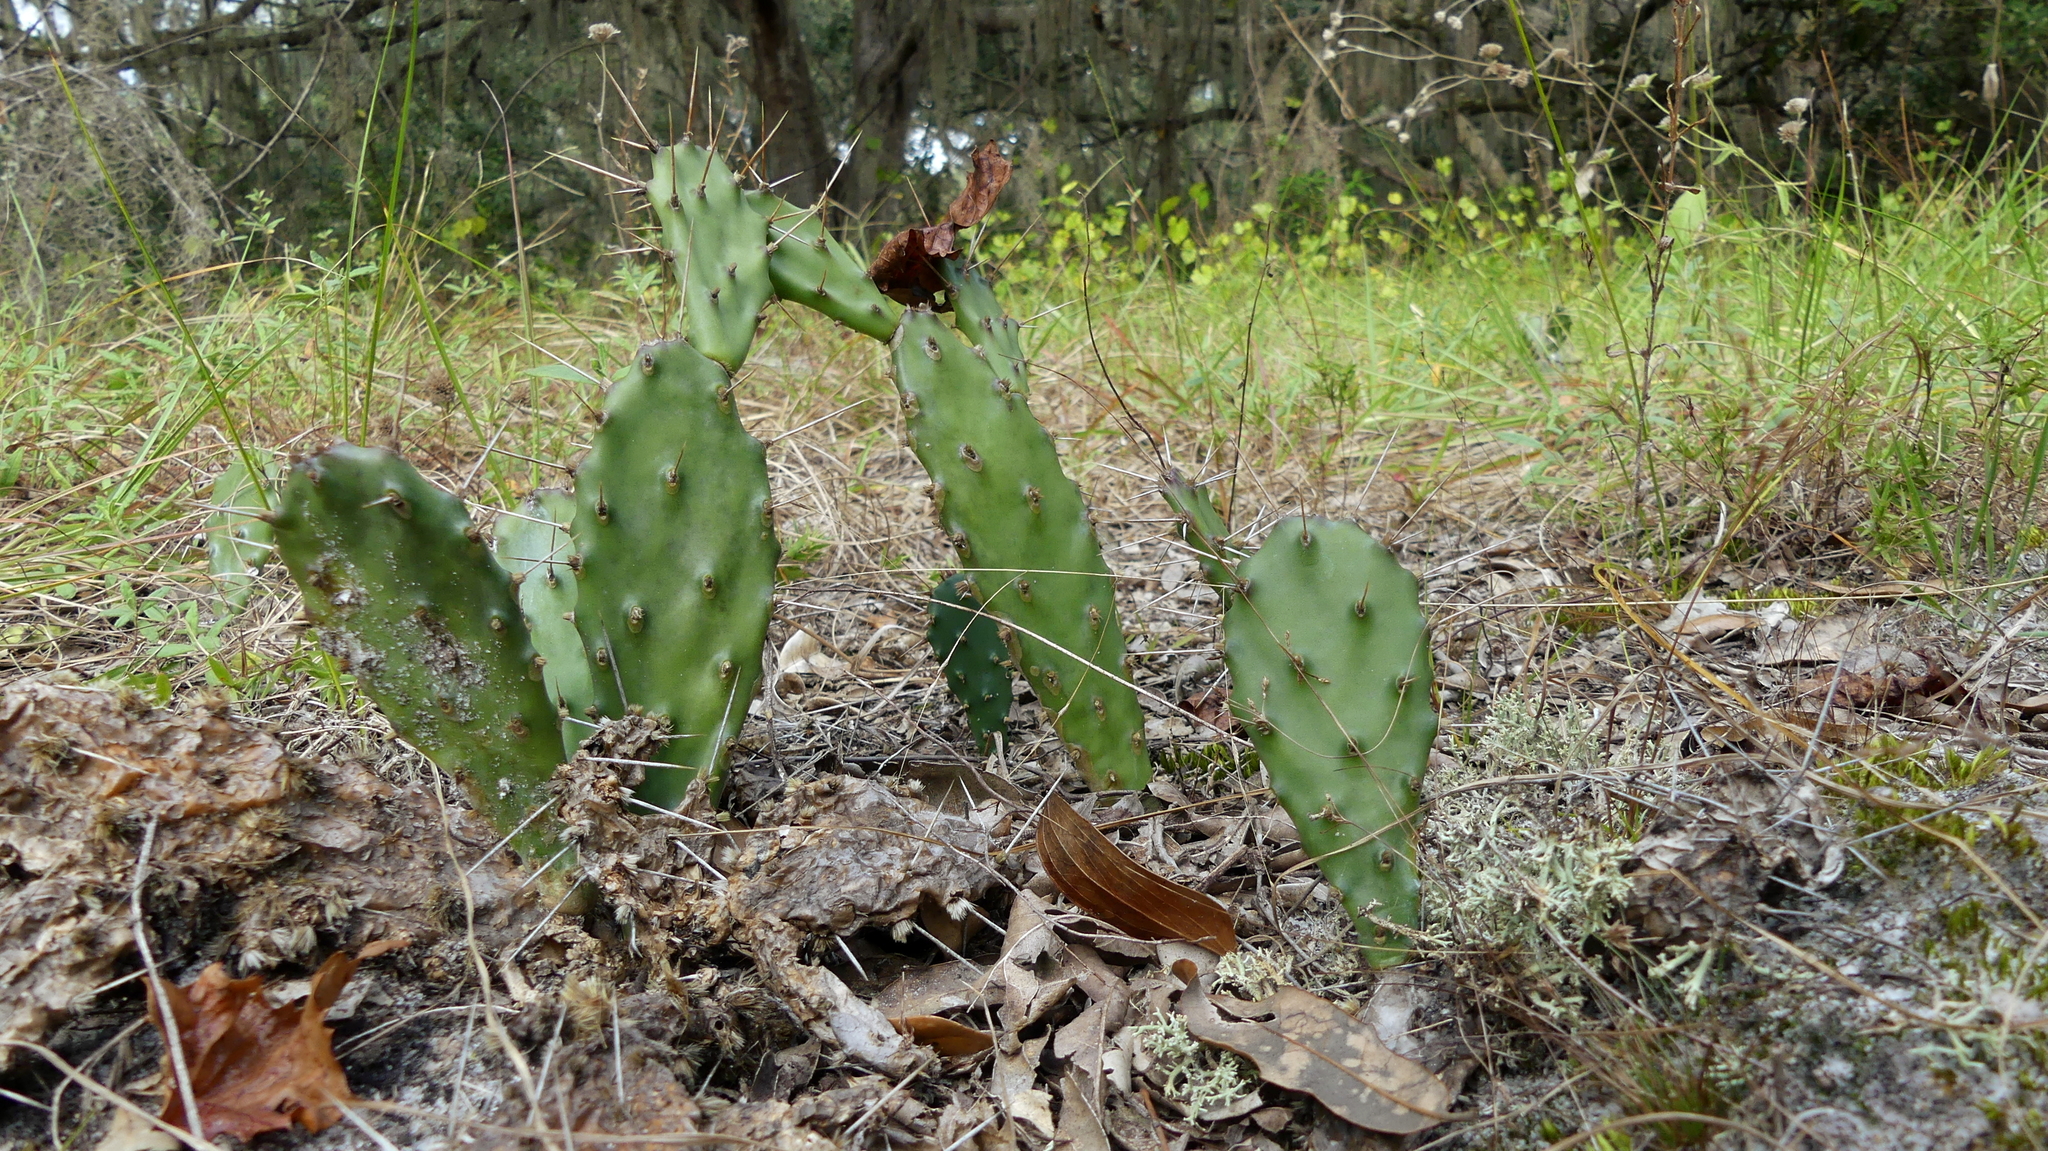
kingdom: Plantae
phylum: Tracheophyta
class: Magnoliopsida
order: Caryophyllales
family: Cactaceae
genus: Opuntia
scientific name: Opuntia austrina
